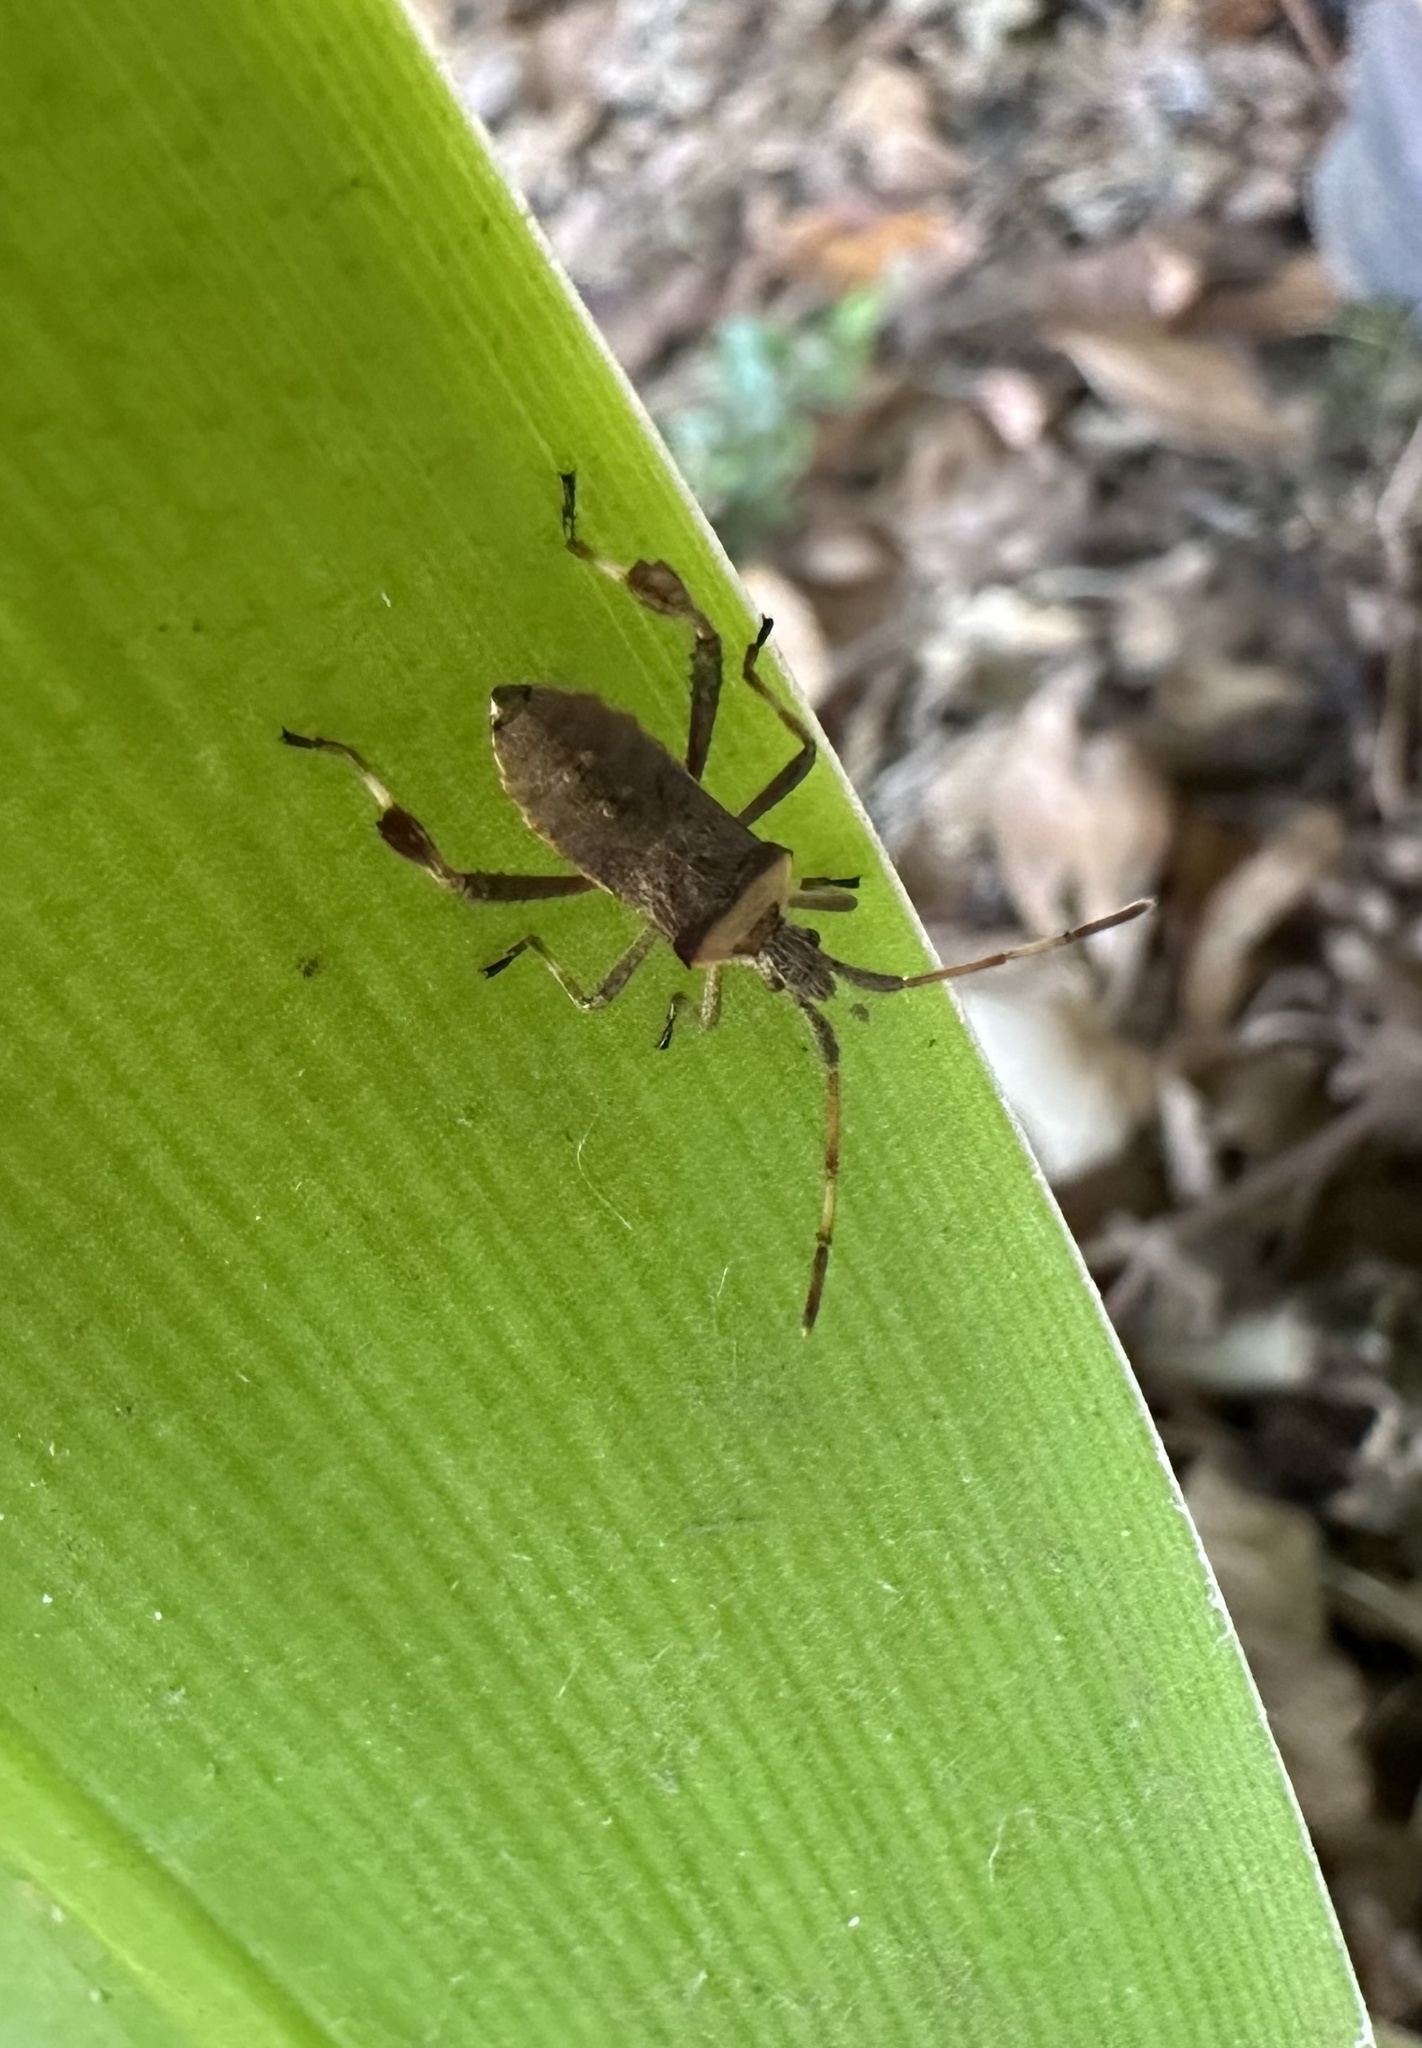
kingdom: Animalia
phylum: Arthropoda
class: Insecta
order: Hemiptera
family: Coreidae
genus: Leptoglossus
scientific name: Leptoglossus chilensis
